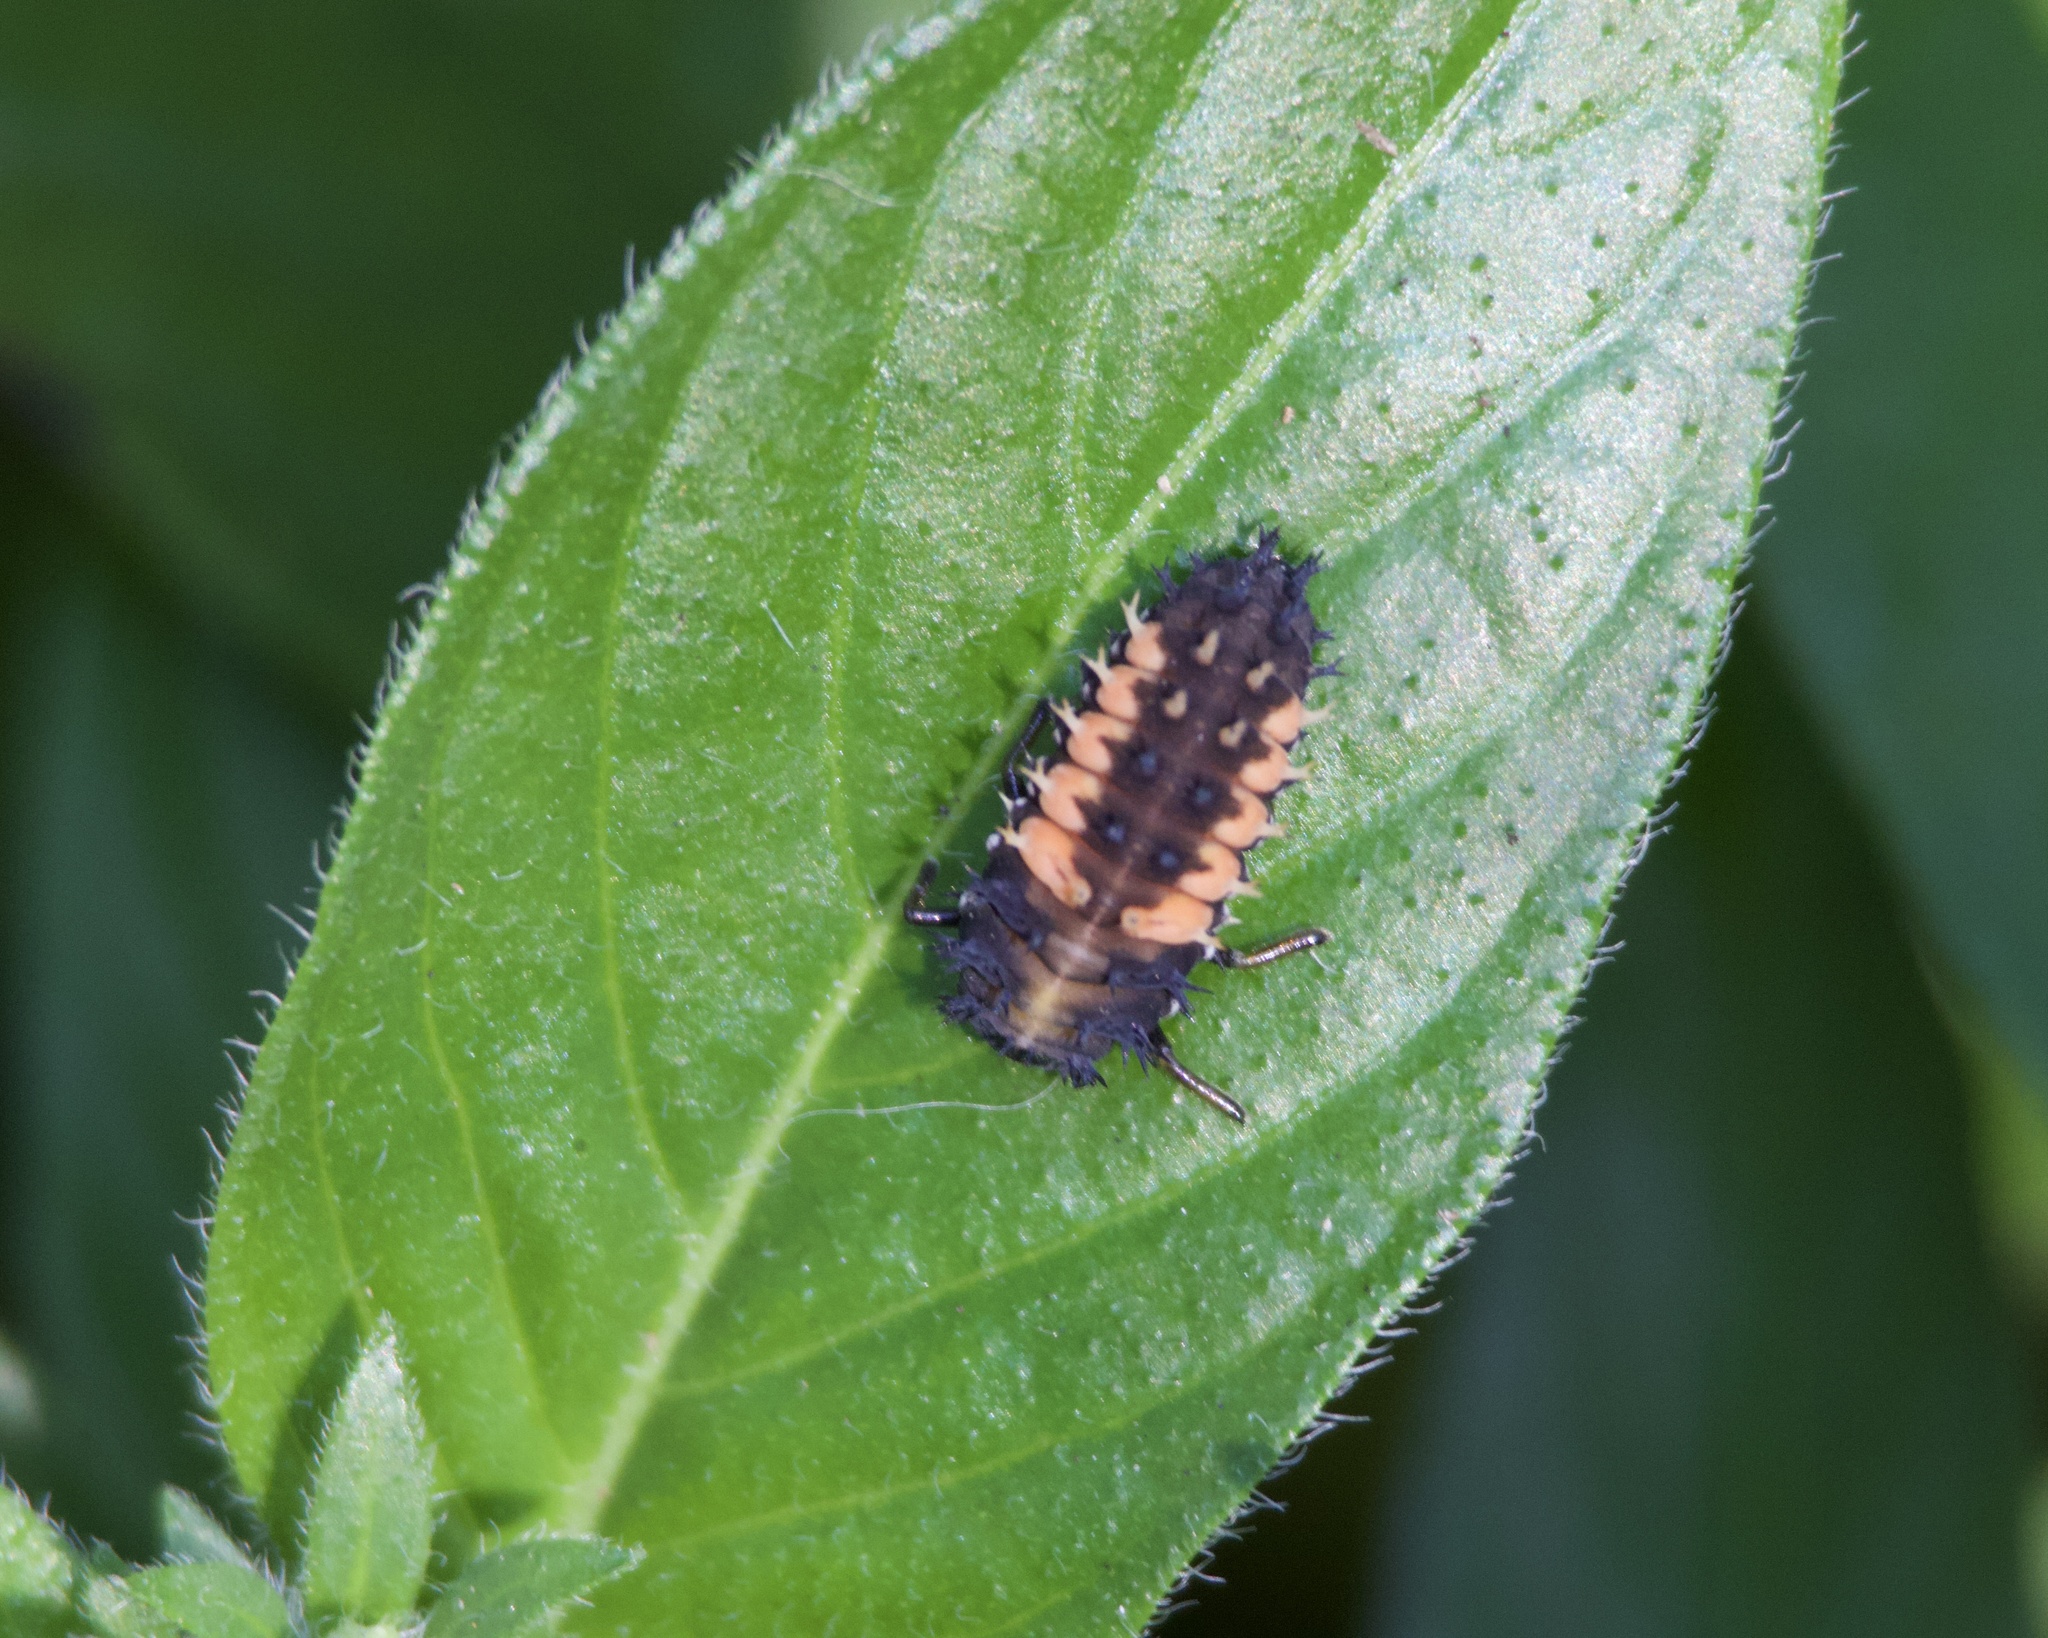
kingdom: Animalia
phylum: Arthropoda
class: Insecta
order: Coleoptera
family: Coccinellidae
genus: Harmonia
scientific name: Harmonia axyridis
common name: Harlequin ladybird
